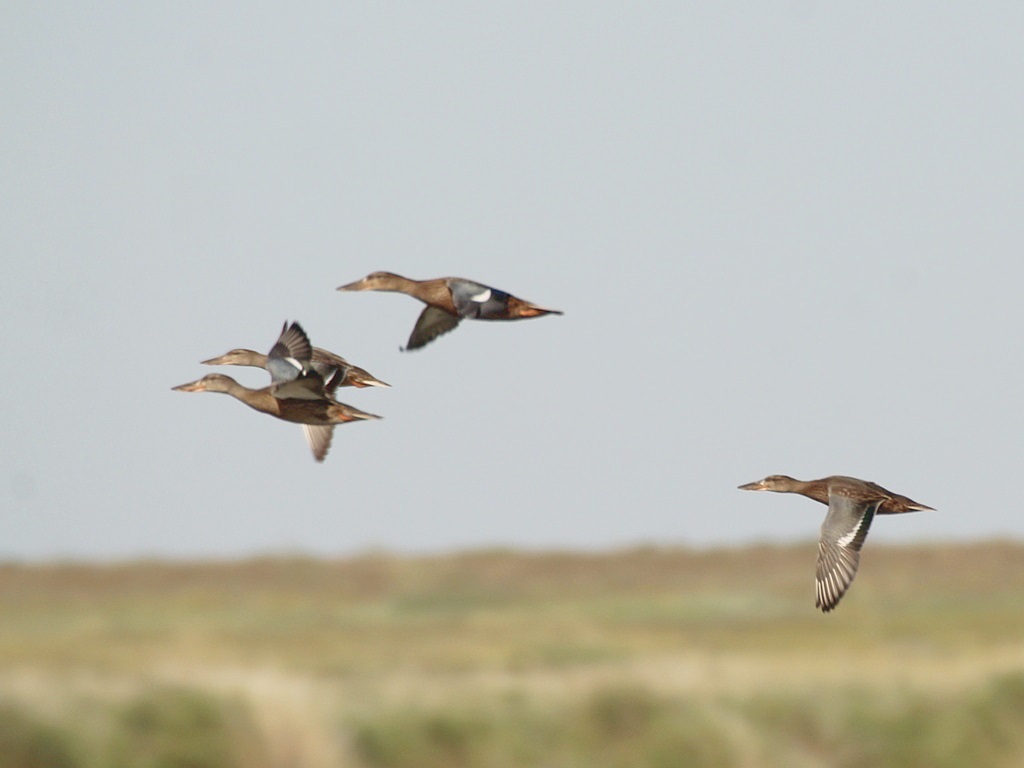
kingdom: Animalia
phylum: Chordata
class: Aves
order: Anseriformes
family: Anatidae
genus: Spatula
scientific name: Spatula clypeata
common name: Northern shoveler
